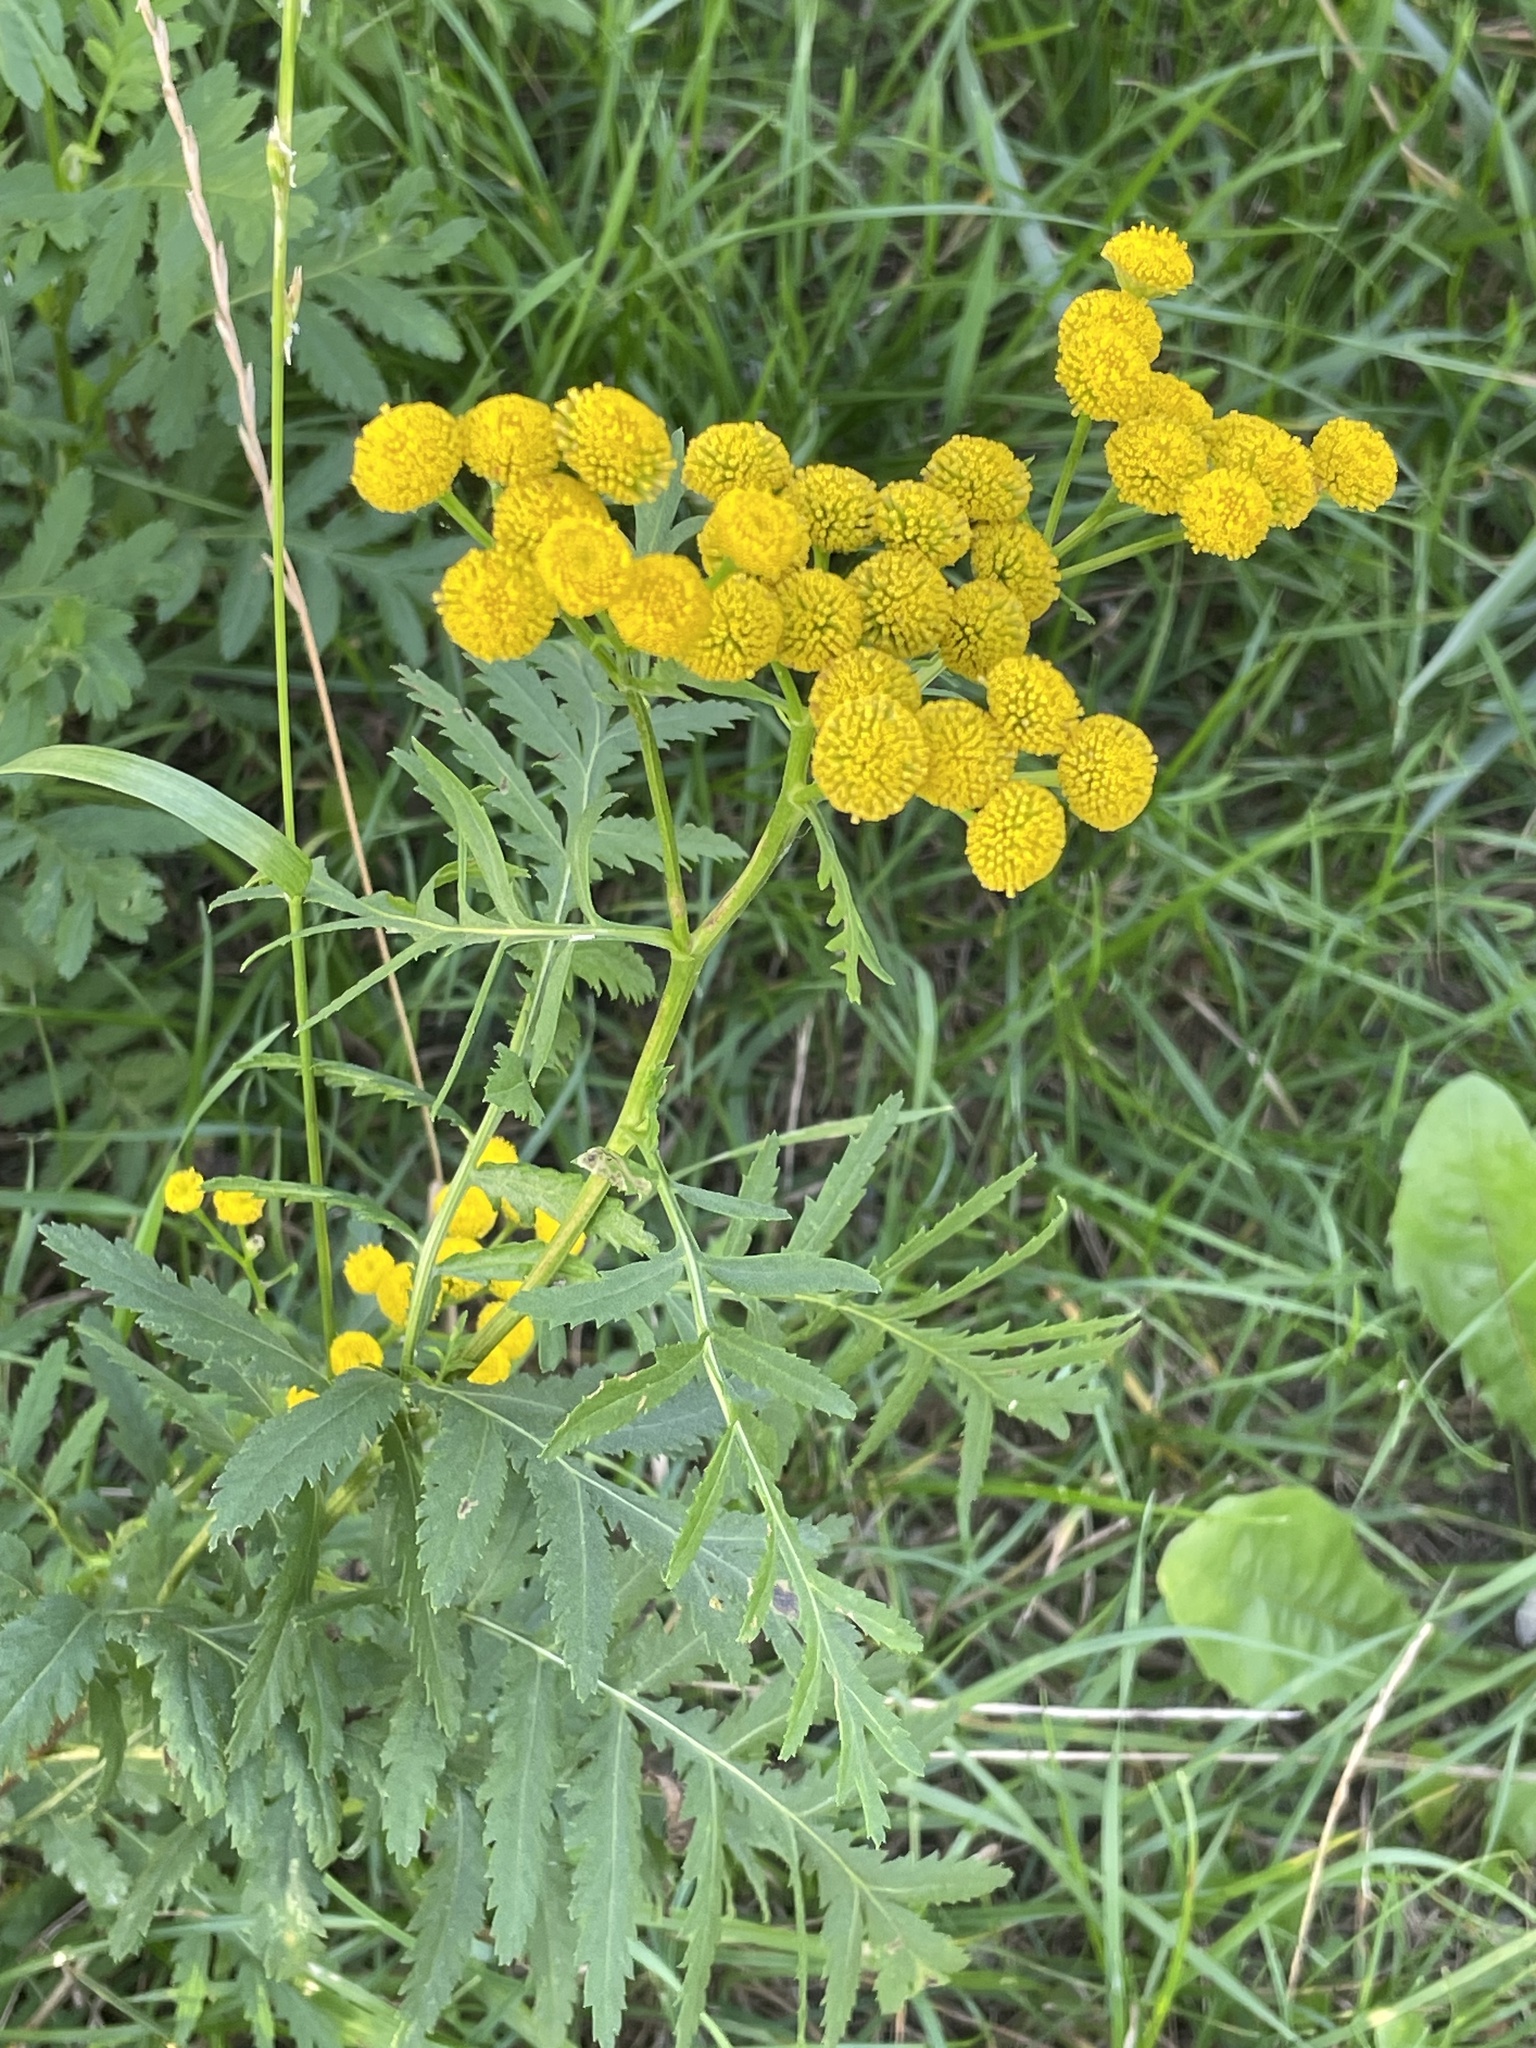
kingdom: Plantae
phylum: Tracheophyta
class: Magnoliopsida
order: Asterales
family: Asteraceae
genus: Tanacetum
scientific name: Tanacetum vulgare
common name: Common tansy
